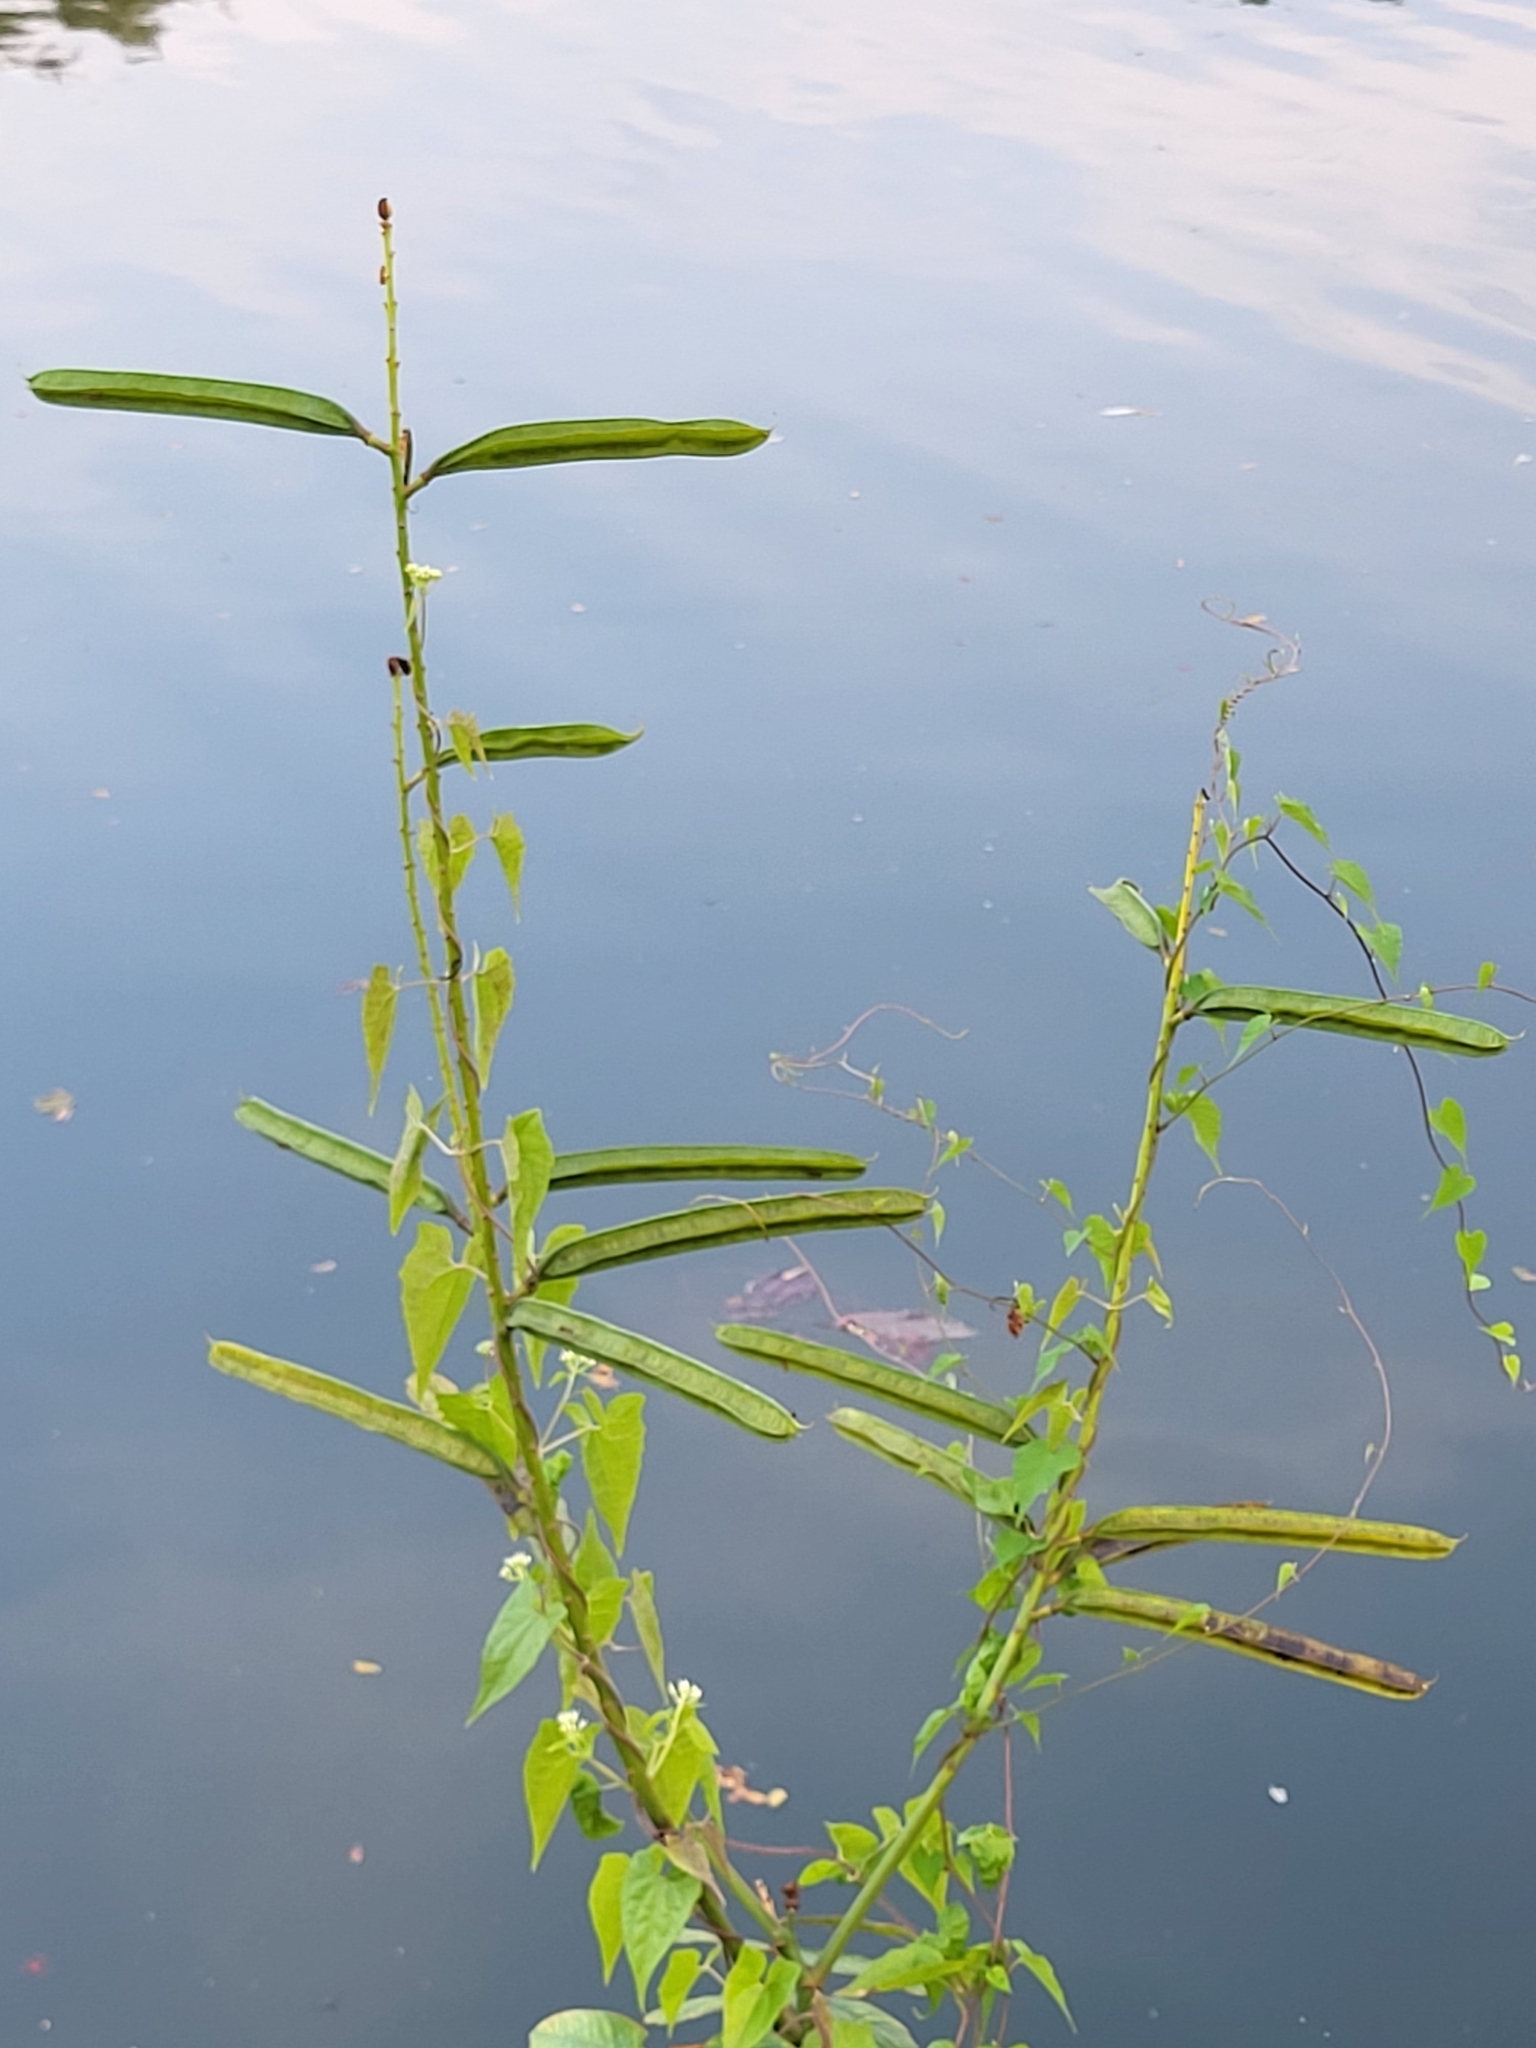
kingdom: Plantae
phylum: Tracheophyta
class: Magnoliopsida
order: Fabales
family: Fabaceae
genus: Senna
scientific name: Senna alata
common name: Emperor's candlesticks
